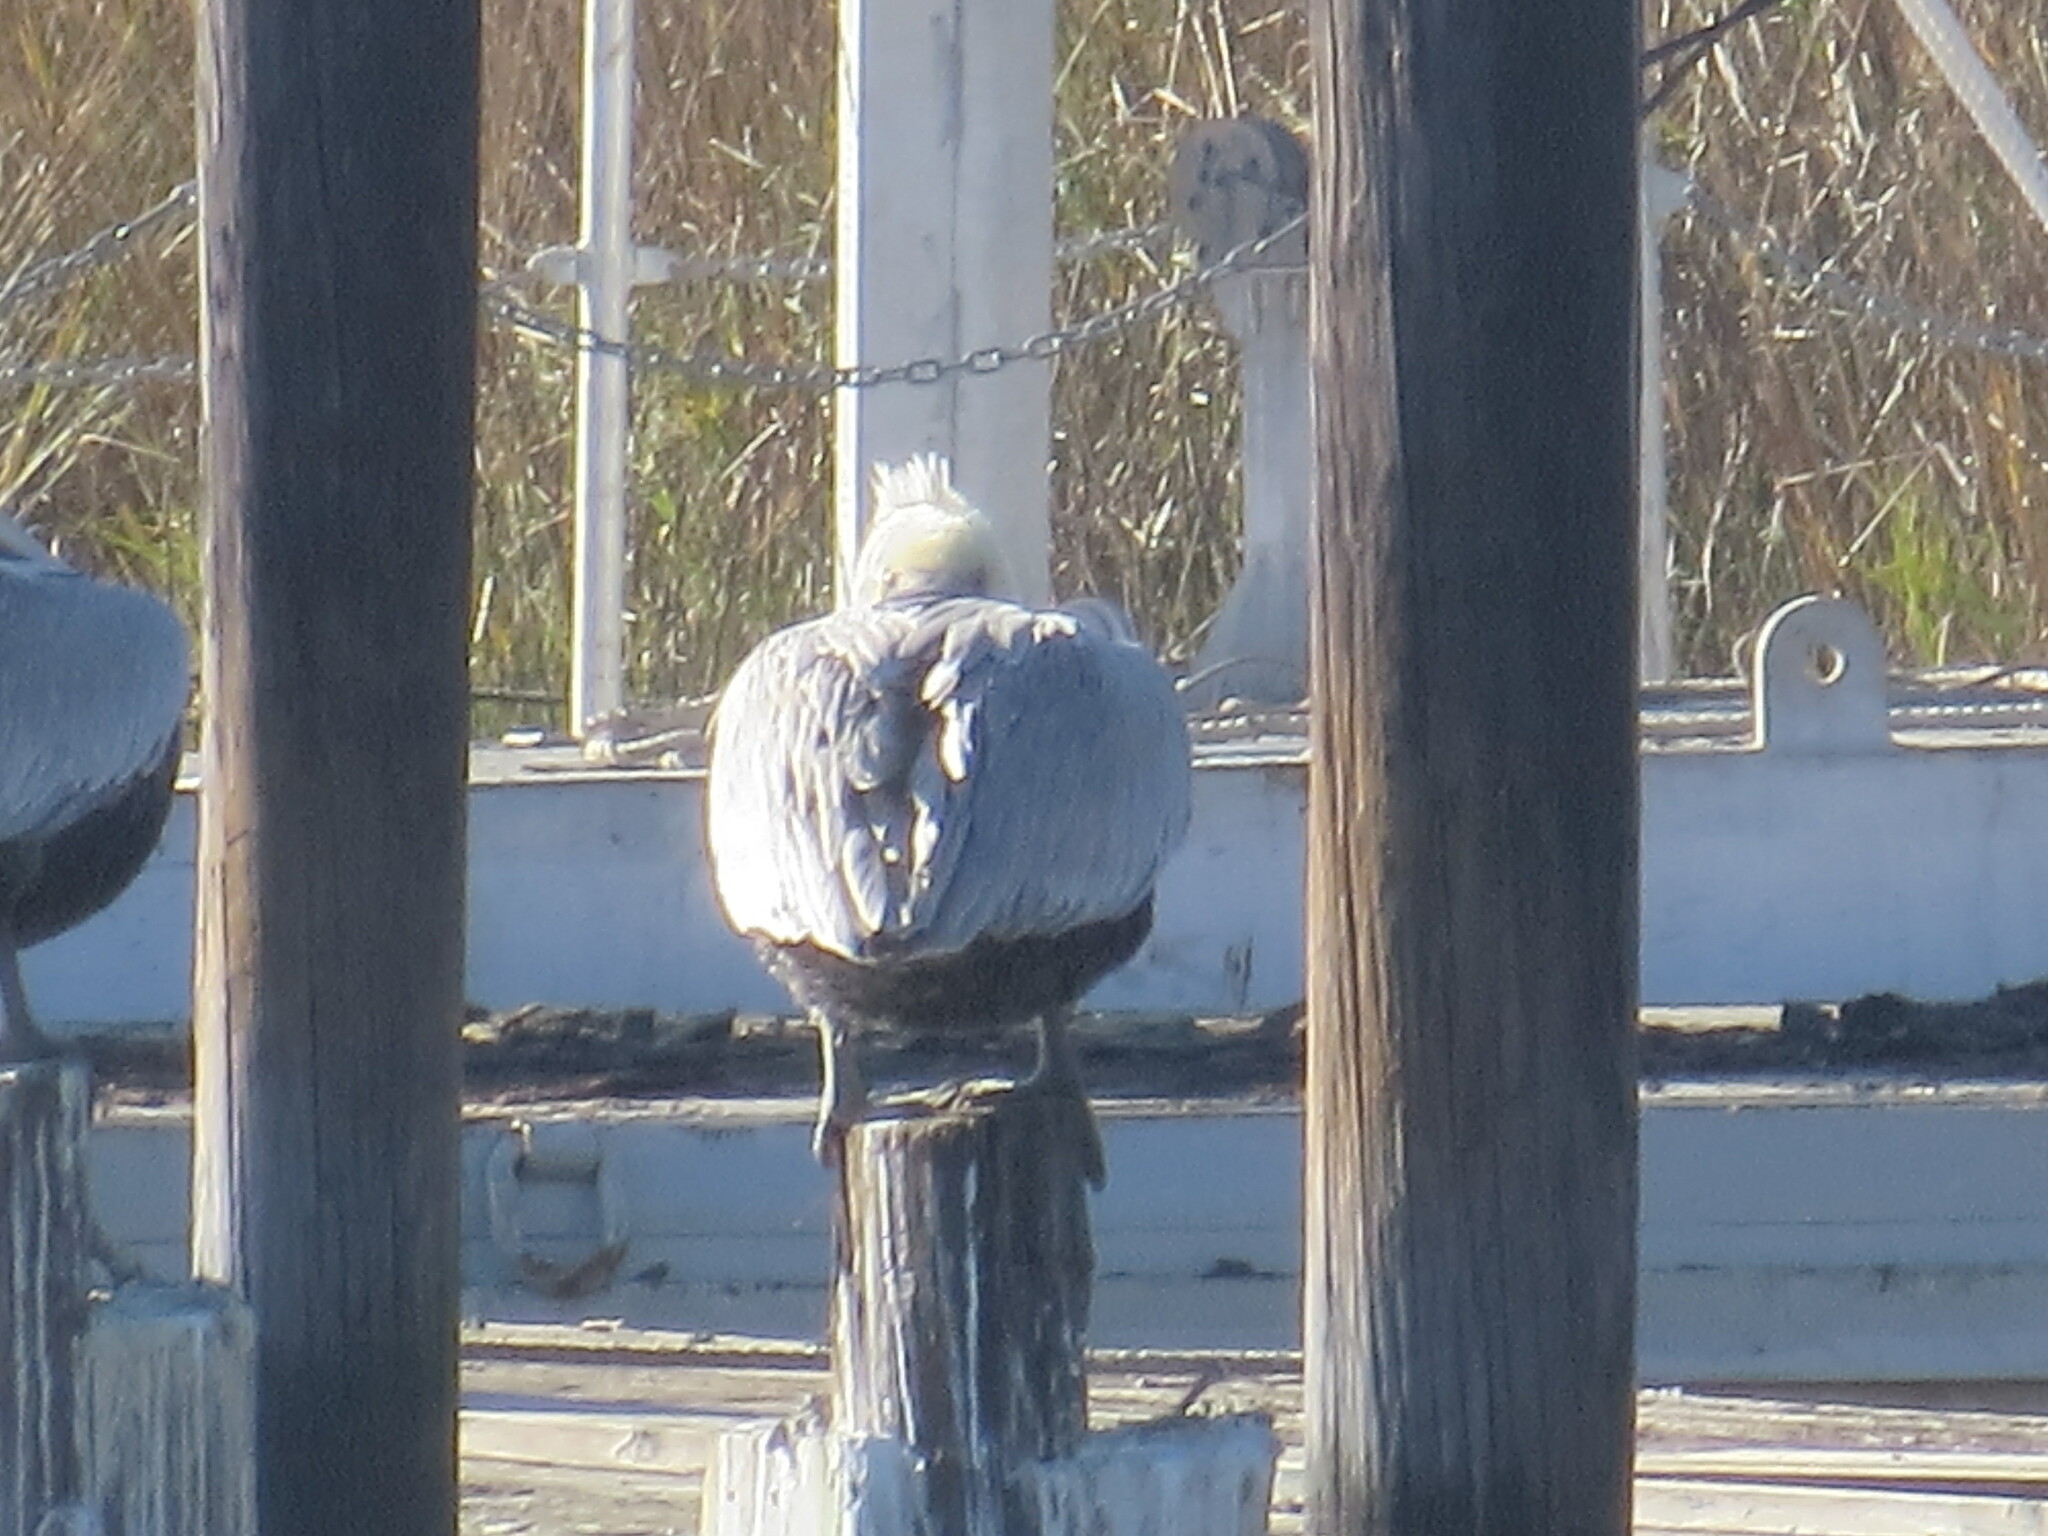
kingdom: Animalia
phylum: Chordata
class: Aves
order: Pelecaniformes
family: Pelecanidae
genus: Pelecanus
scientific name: Pelecanus occidentalis
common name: Brown pelican
